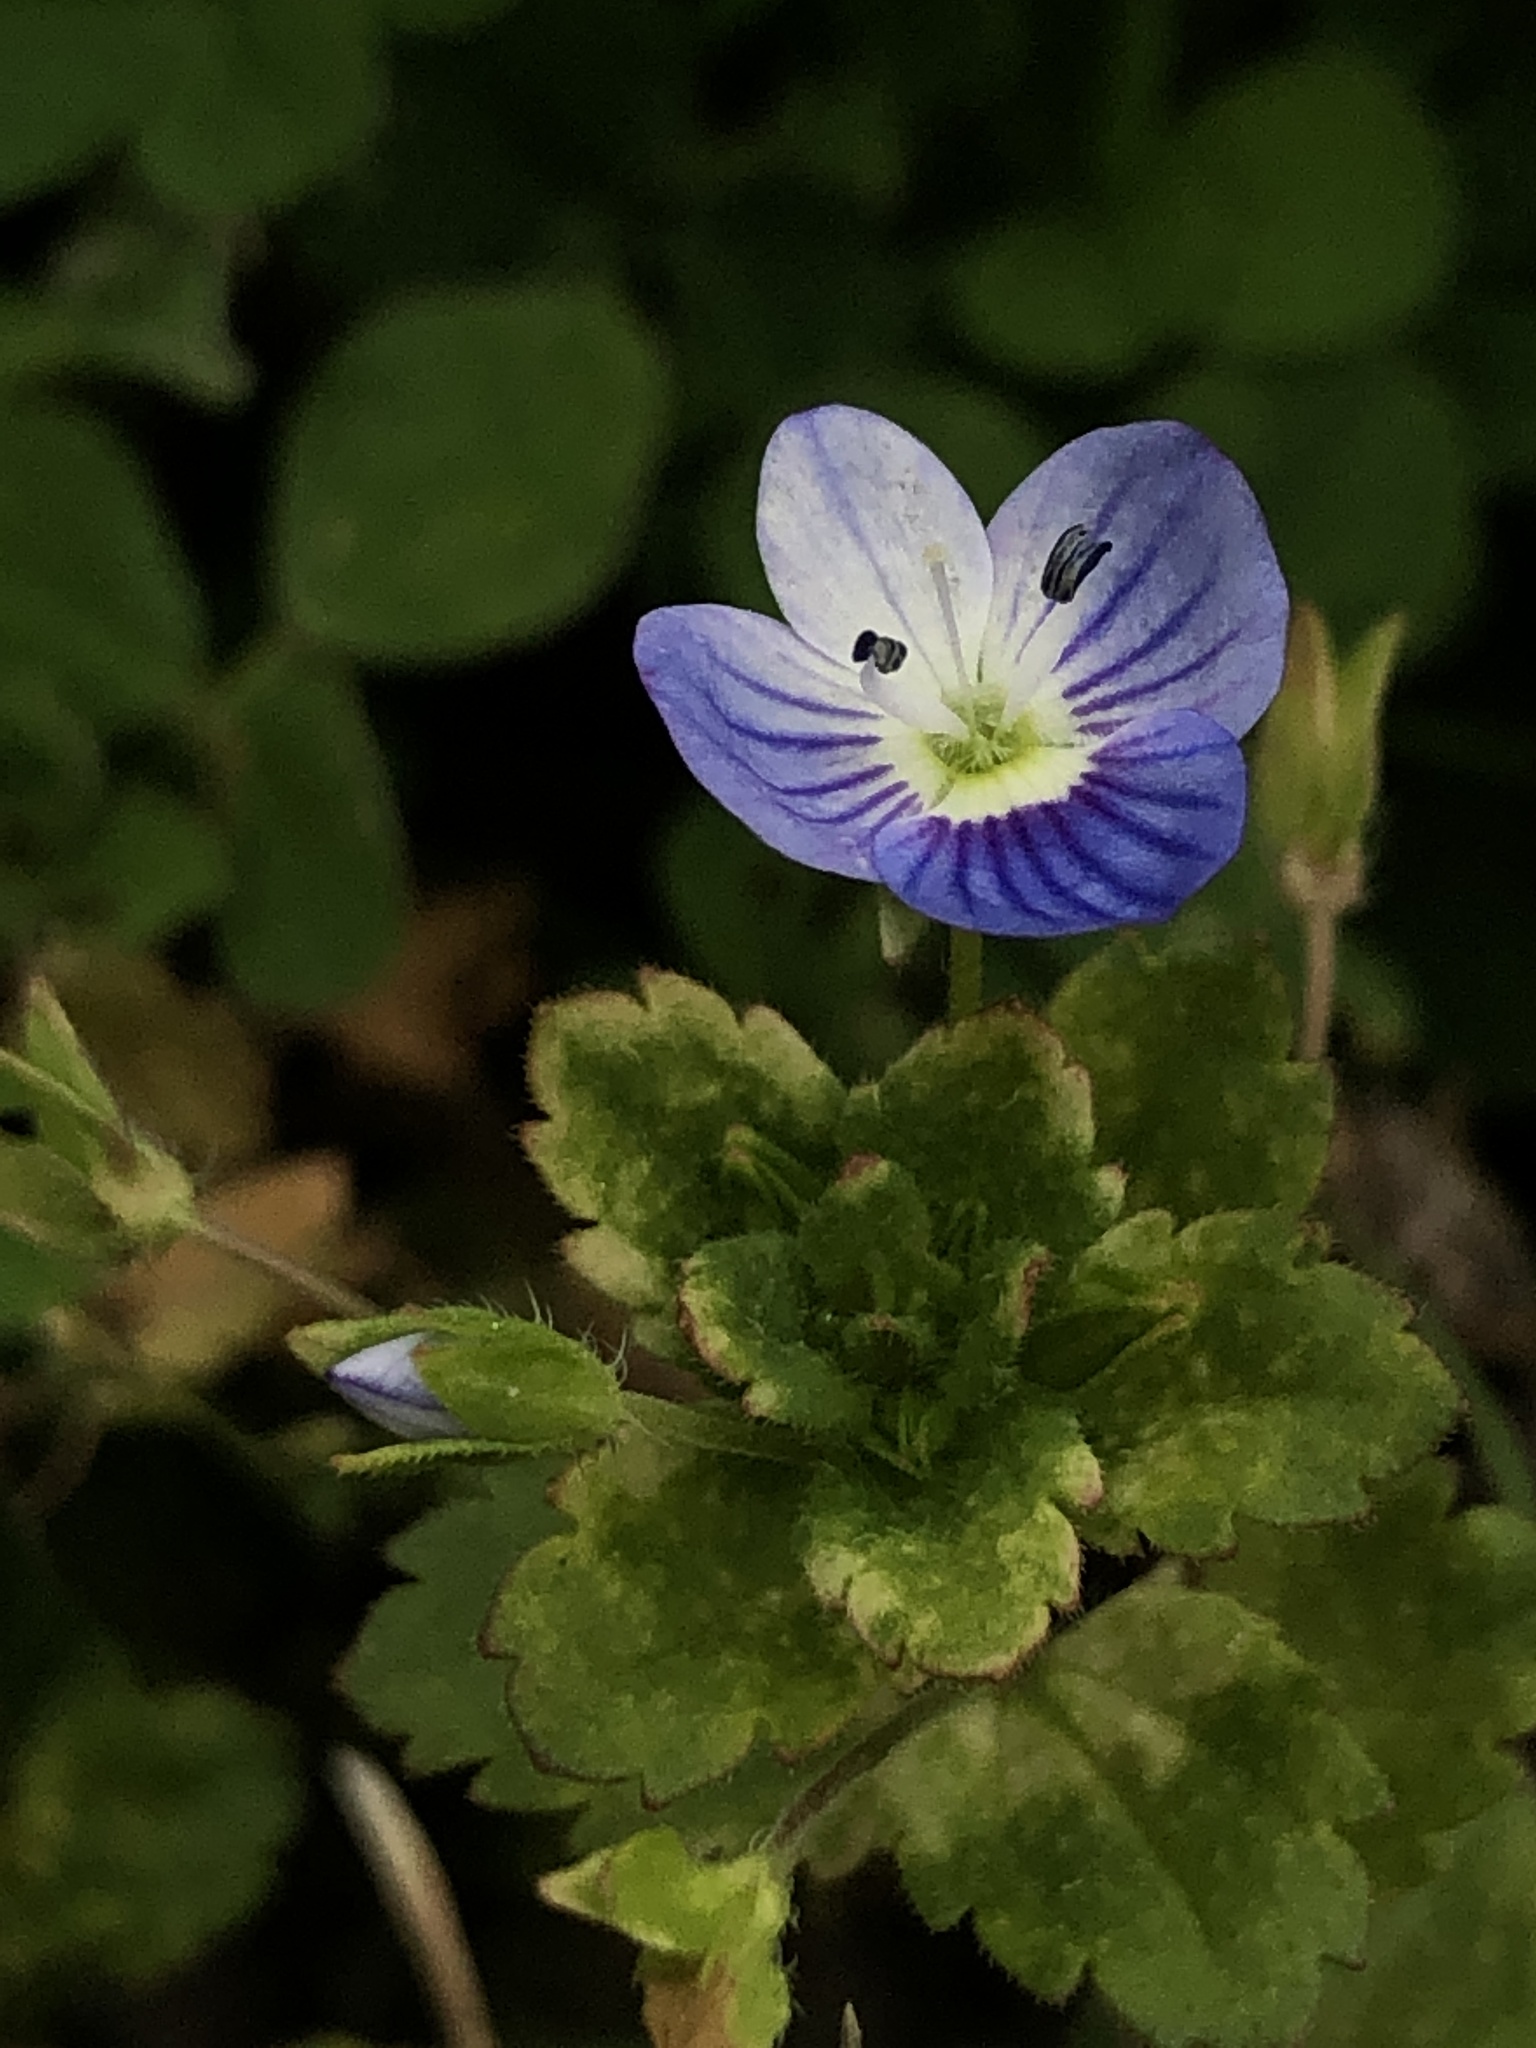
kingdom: Plantae
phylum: Tracheophyta
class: Magnoliopsida
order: Lamiales
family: Plantaginaceae
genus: Veronica
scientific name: Veronica persica
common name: Common field-speedwell
